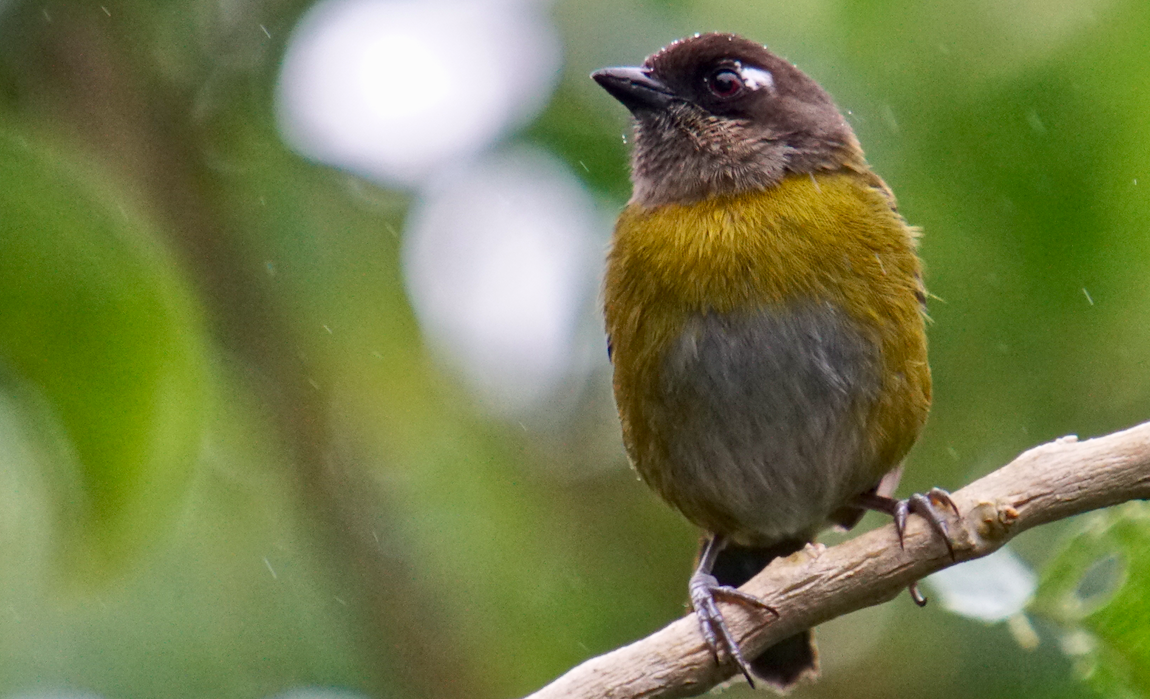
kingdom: Animalia
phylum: Chordata
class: Aves
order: Passeriformes
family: Passerellidae
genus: Chlorospingus
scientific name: Chlorospingus flavopectus
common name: Common chlorospingus
